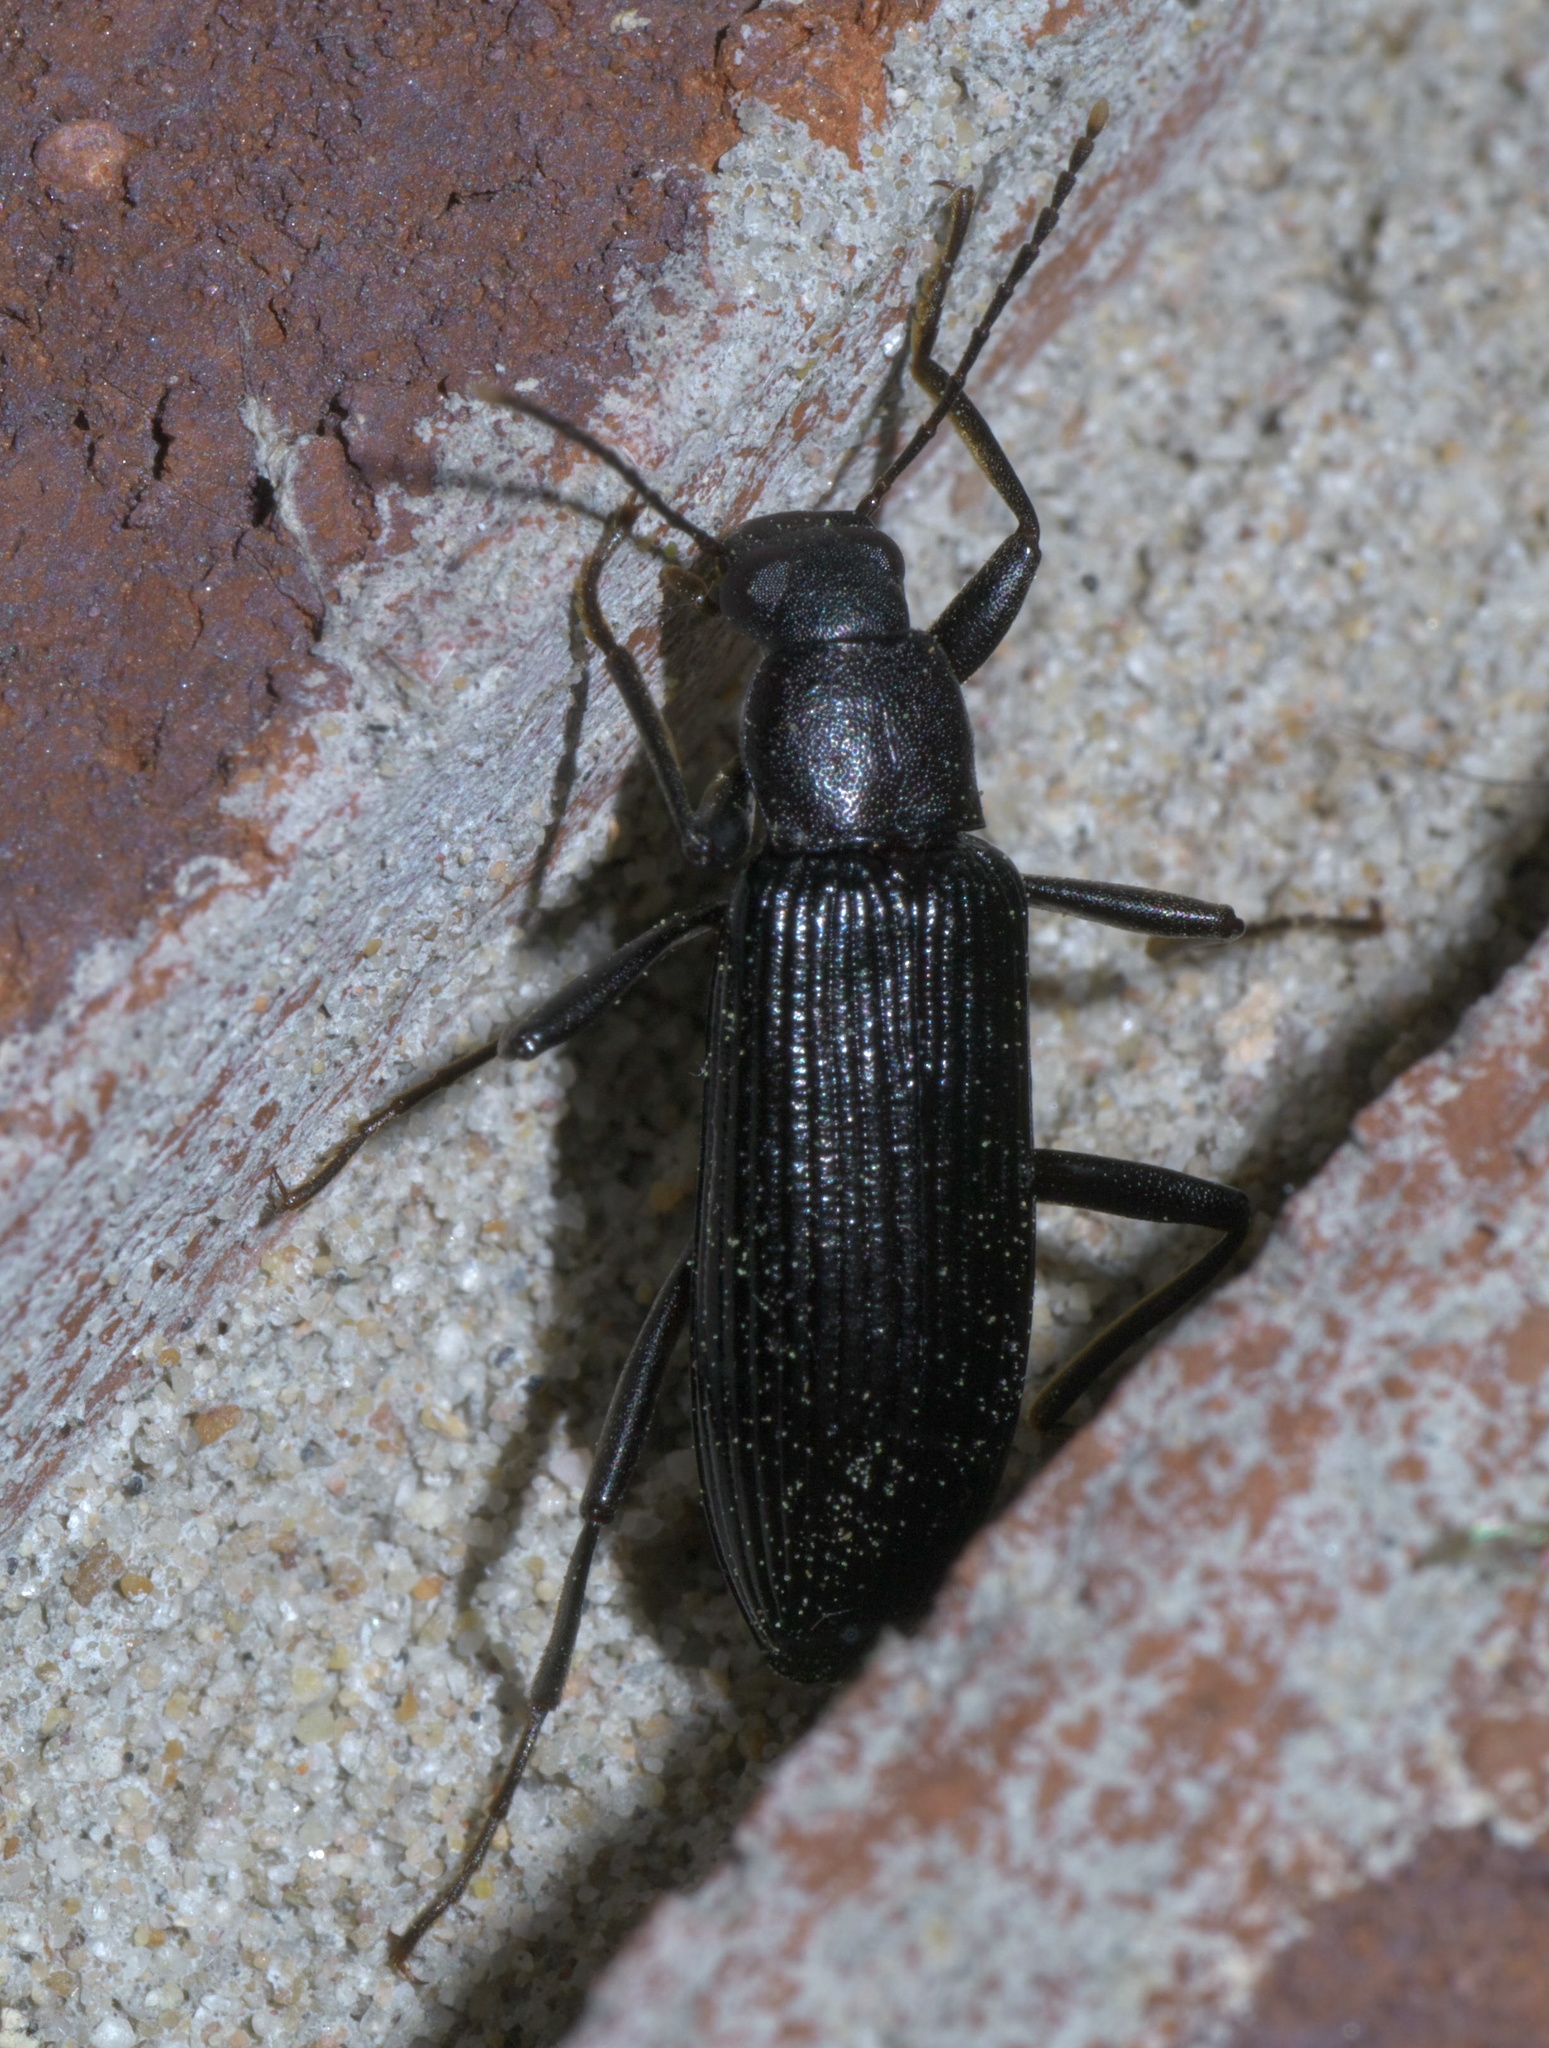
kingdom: Animalia
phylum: Arthropoda
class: Insecta
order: Coleoptera
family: Tenebrionidae
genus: Strongylium
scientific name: Strongylium tenuicolle
